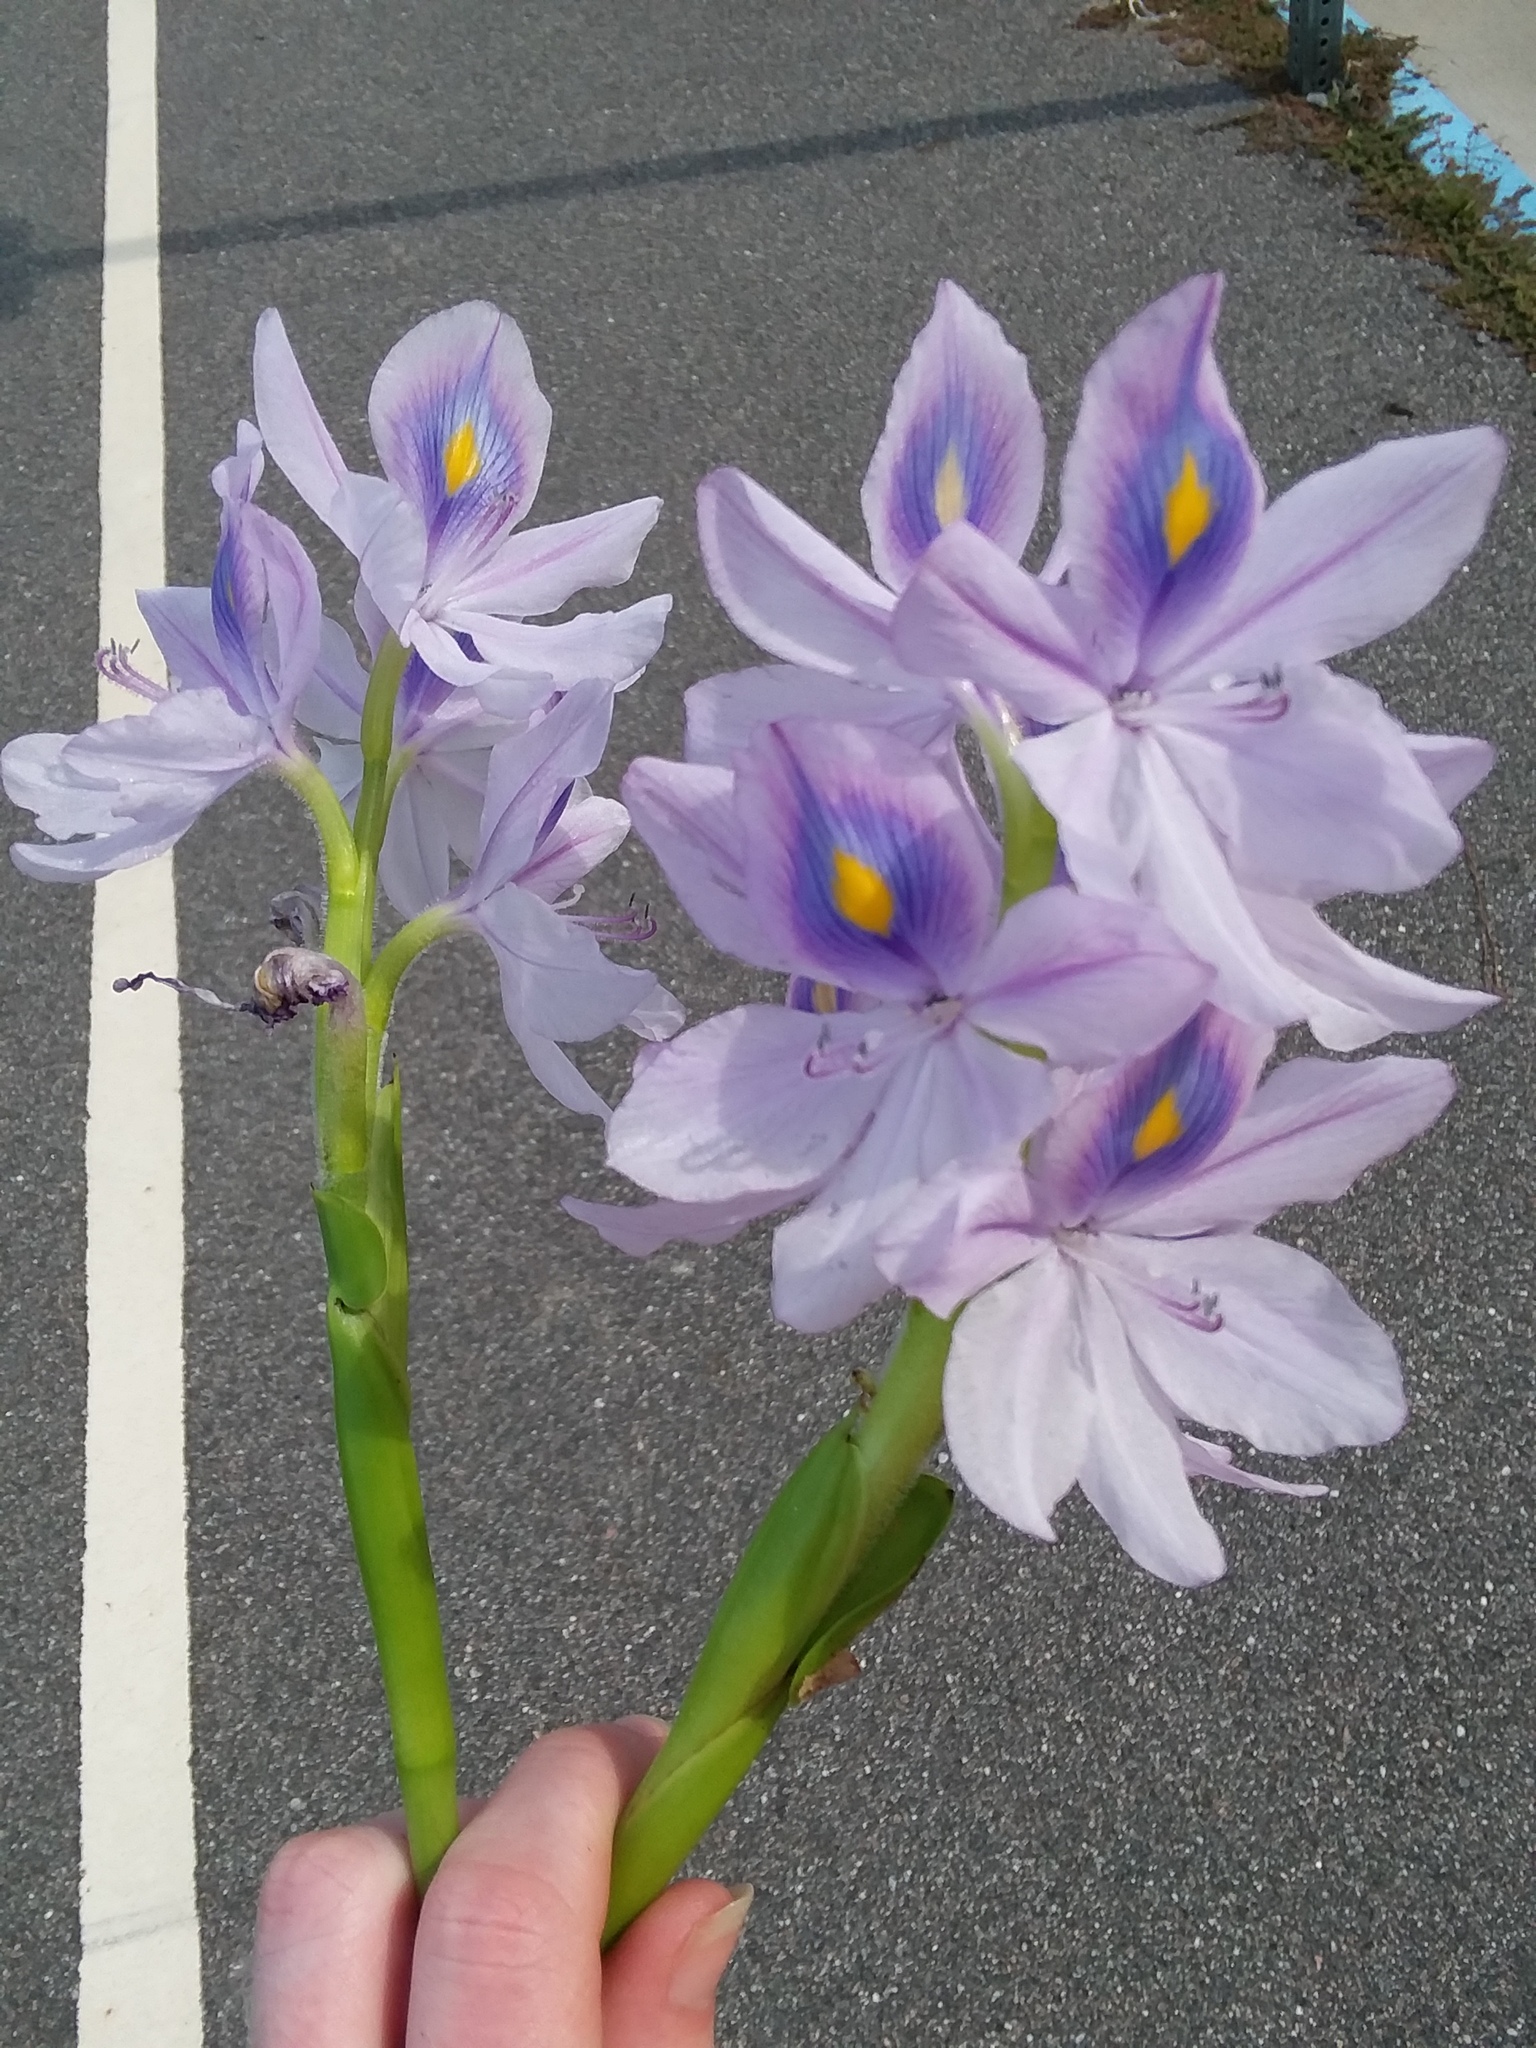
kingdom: Plantae
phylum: Tracheophyta
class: Liliopsida
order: Commelinales
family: Pontederiaceae
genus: Pontederia
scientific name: Pontederia crassipes
